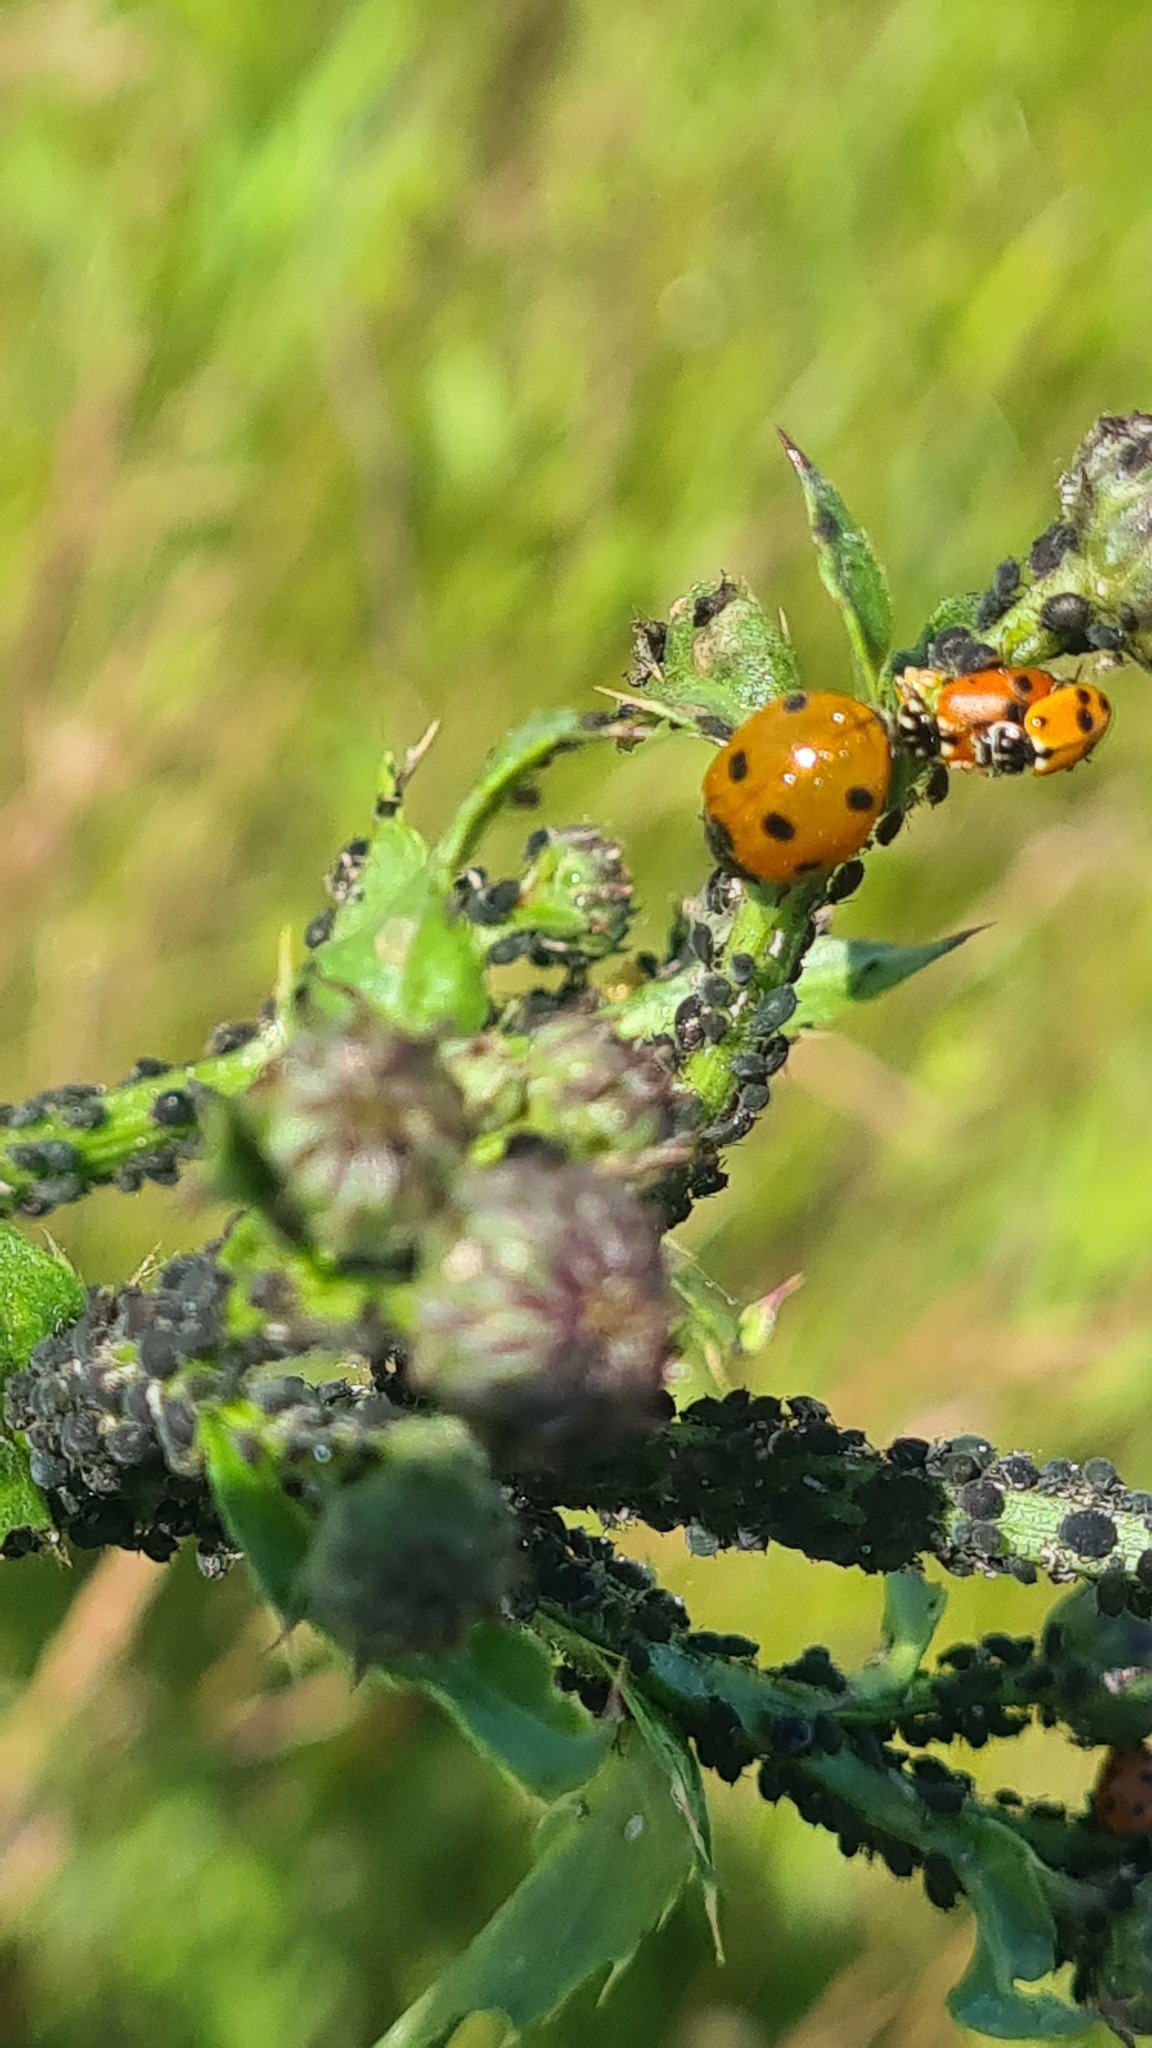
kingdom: Animalia
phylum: Arthropoda
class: Insecta
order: Coleoptera
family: Coccinellidae
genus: Coccinella
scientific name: Coccinella septempunctata
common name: Sevenspotted lady beetle
